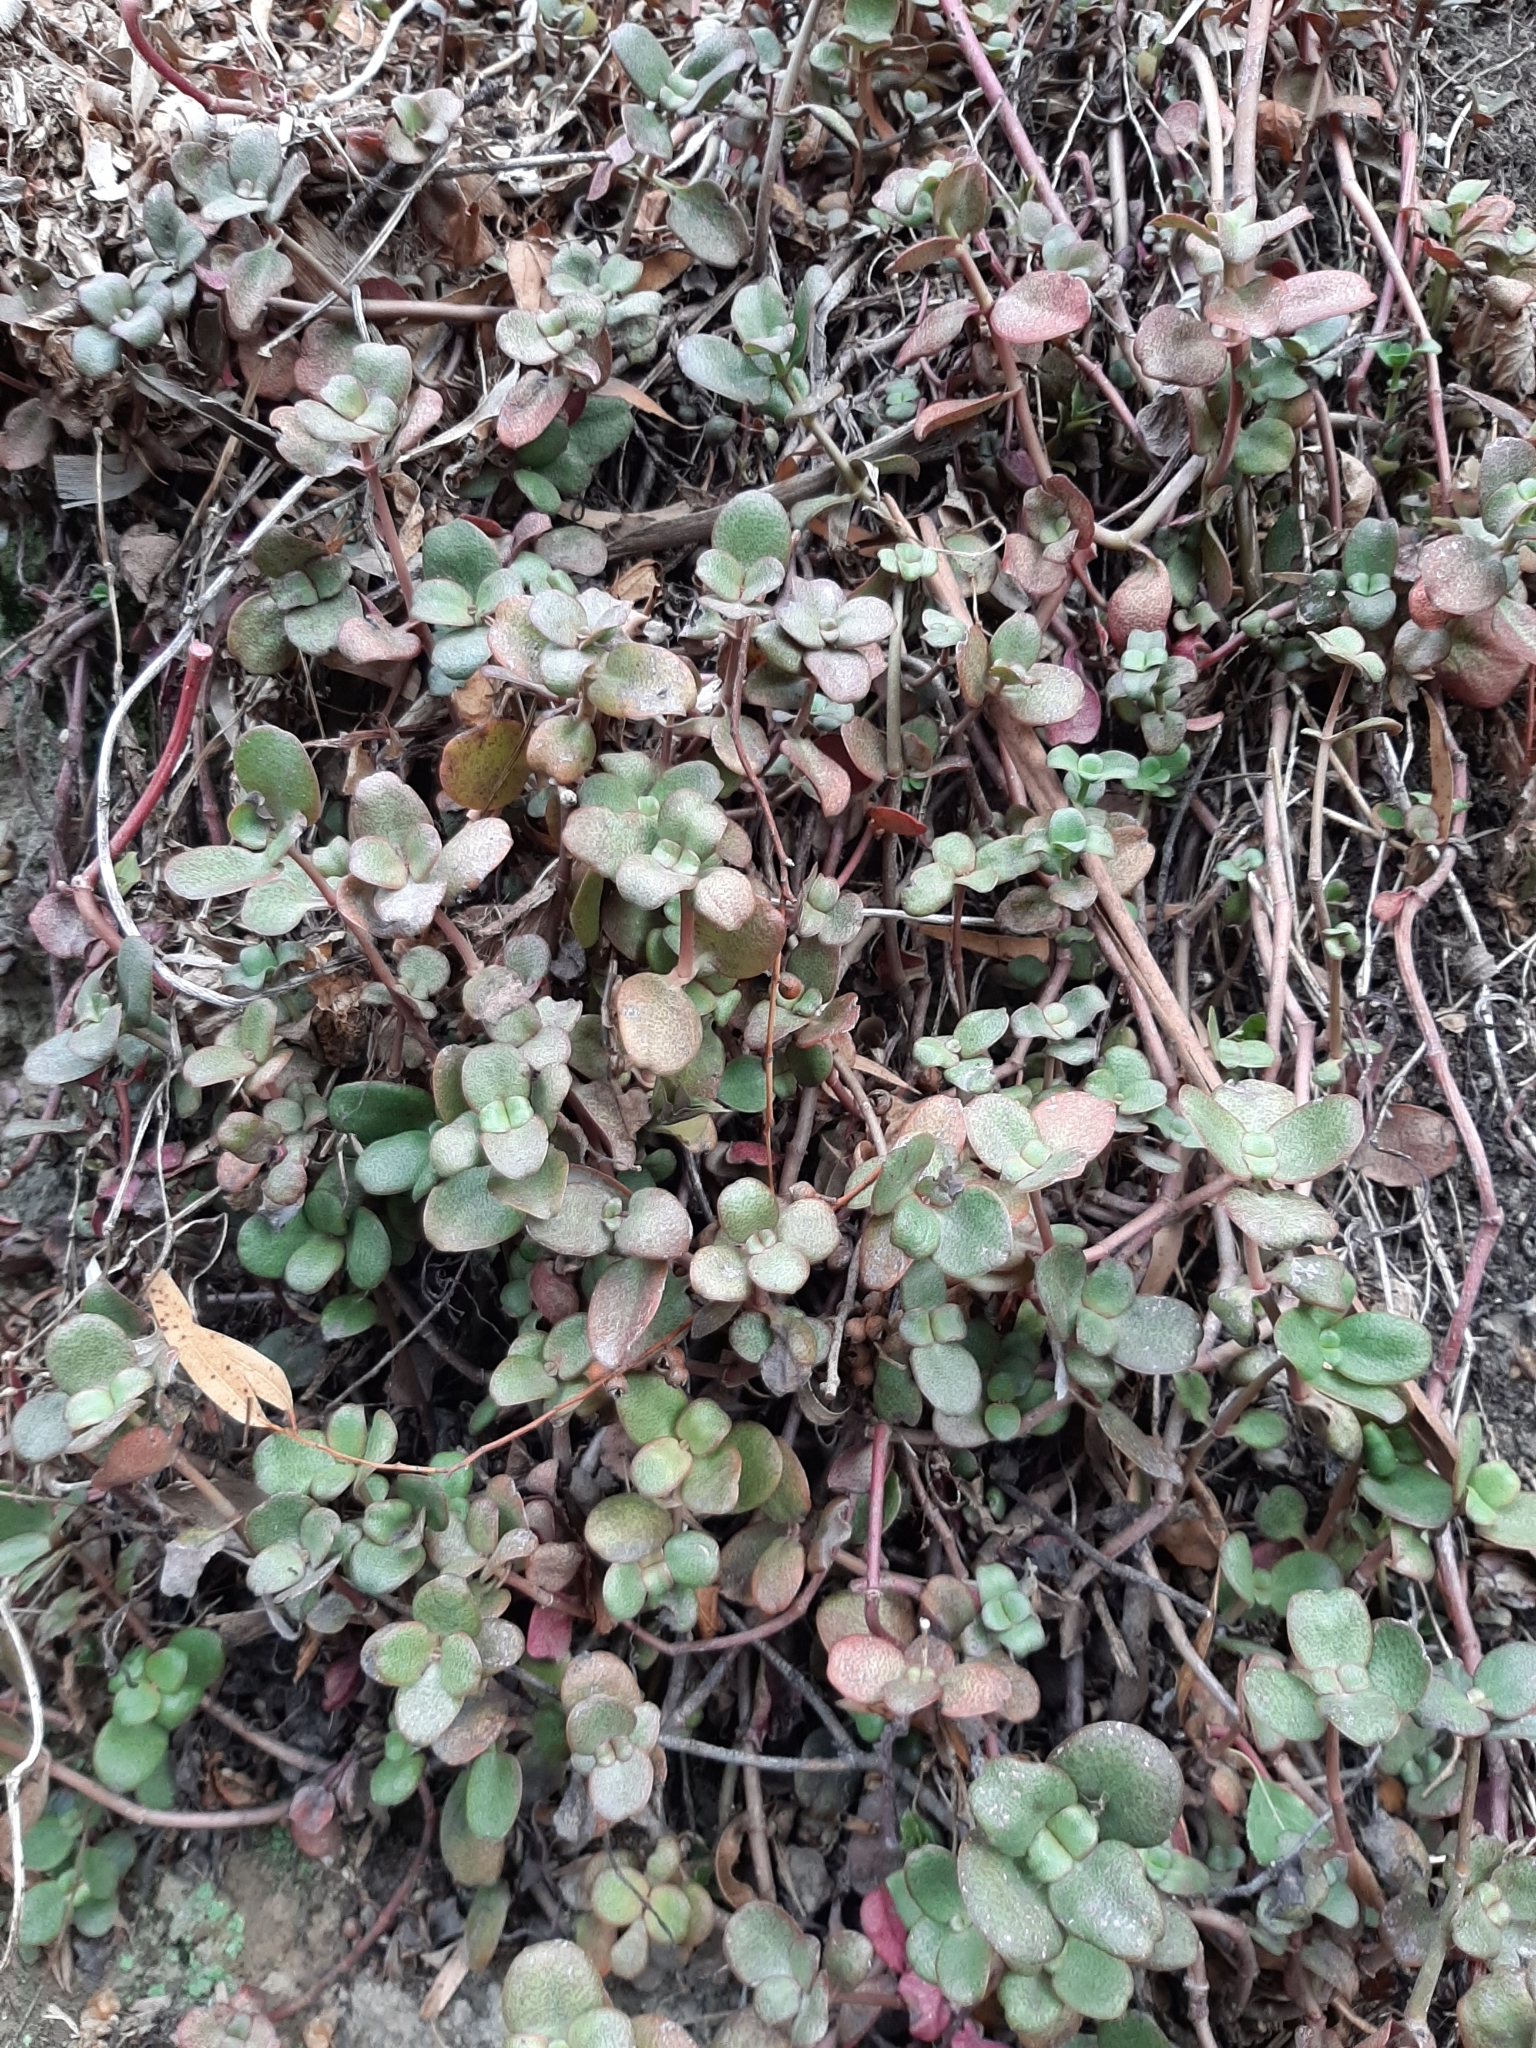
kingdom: Plantae
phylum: Tracheophyta
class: Magnoliopsida
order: Saxifragales
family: Crassulaceae
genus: Crassula
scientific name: Crassula multicava
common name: Cape province pygmyweed
